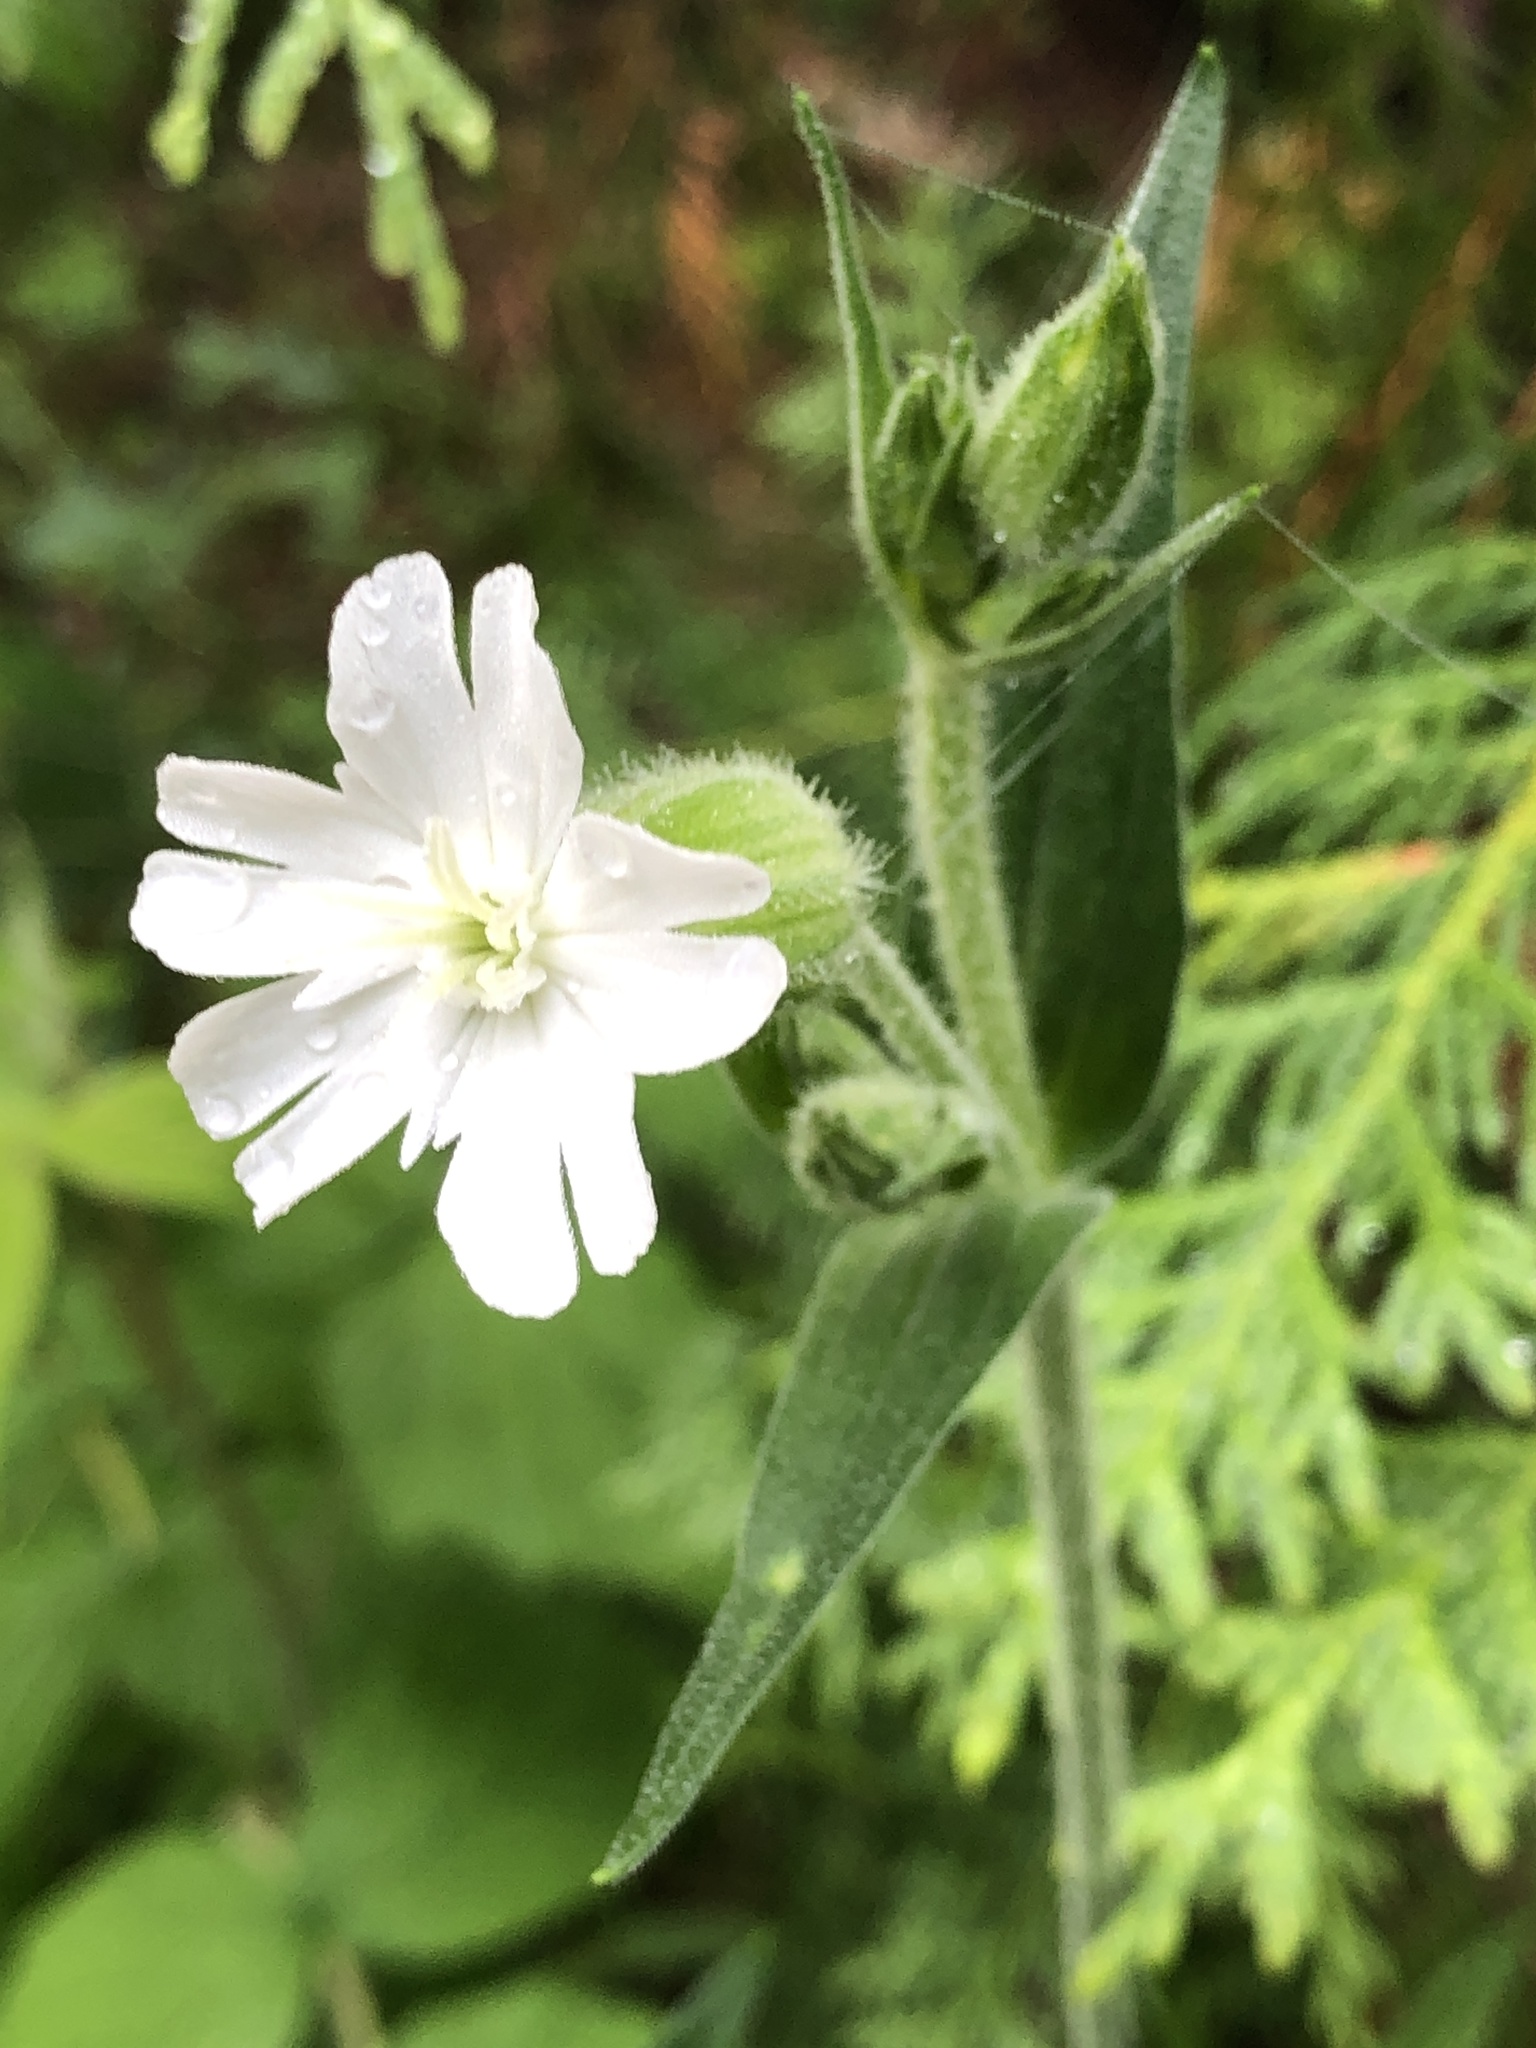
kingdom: Plantae
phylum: Tracheophyta
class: Magnoliopsida
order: Caryophyllales
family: Caryophyllaceae
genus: Silene
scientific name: Silene latifolia
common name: White campion
